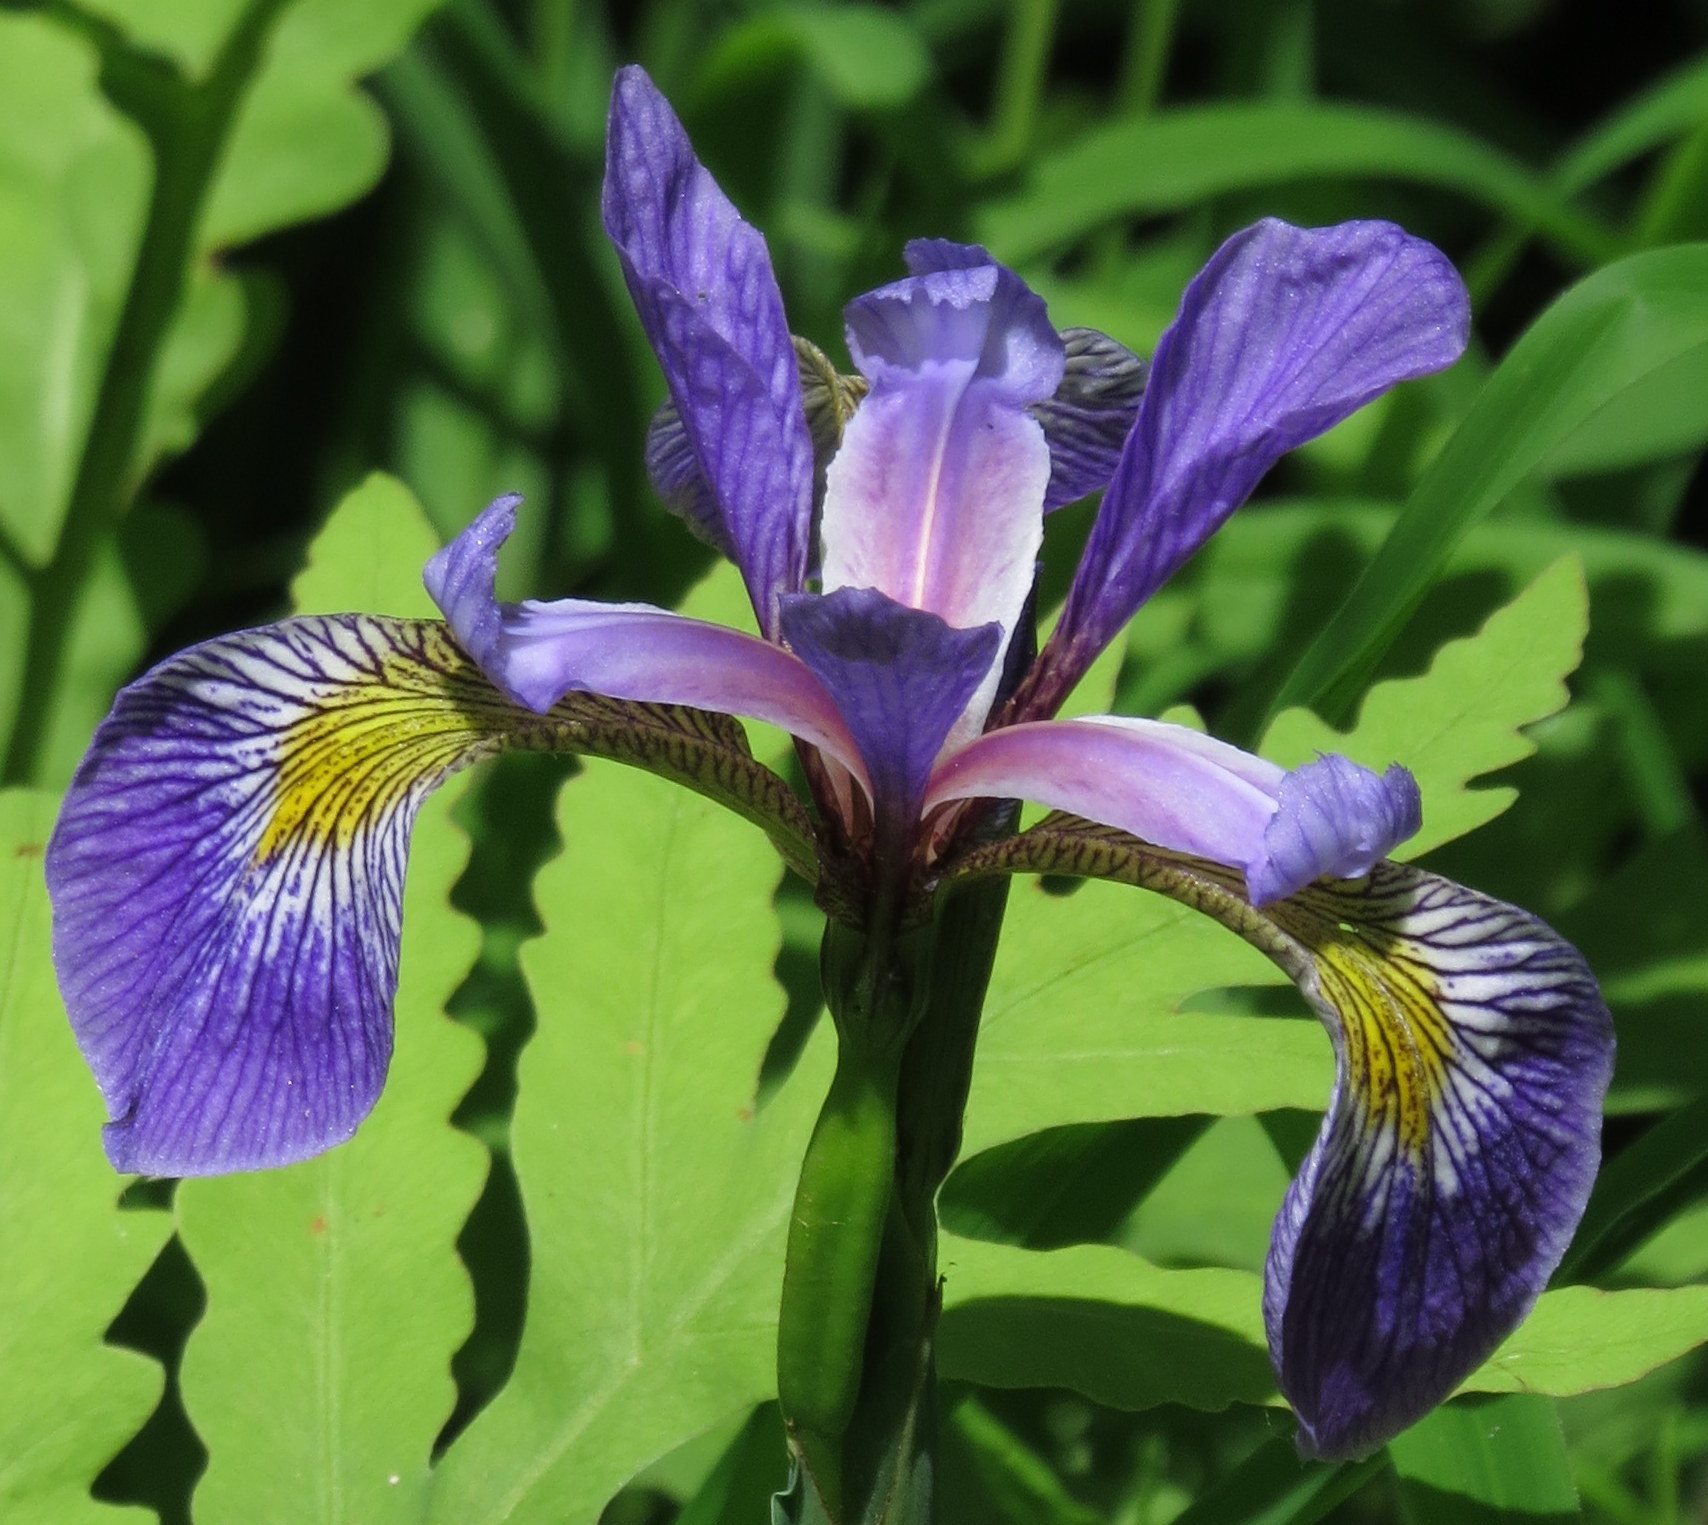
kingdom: Plantae
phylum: Tracheophyta
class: Liliopsida
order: Asparagales
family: Iridaceae
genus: Iris
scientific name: Iris virginica
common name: Southern blue flag
